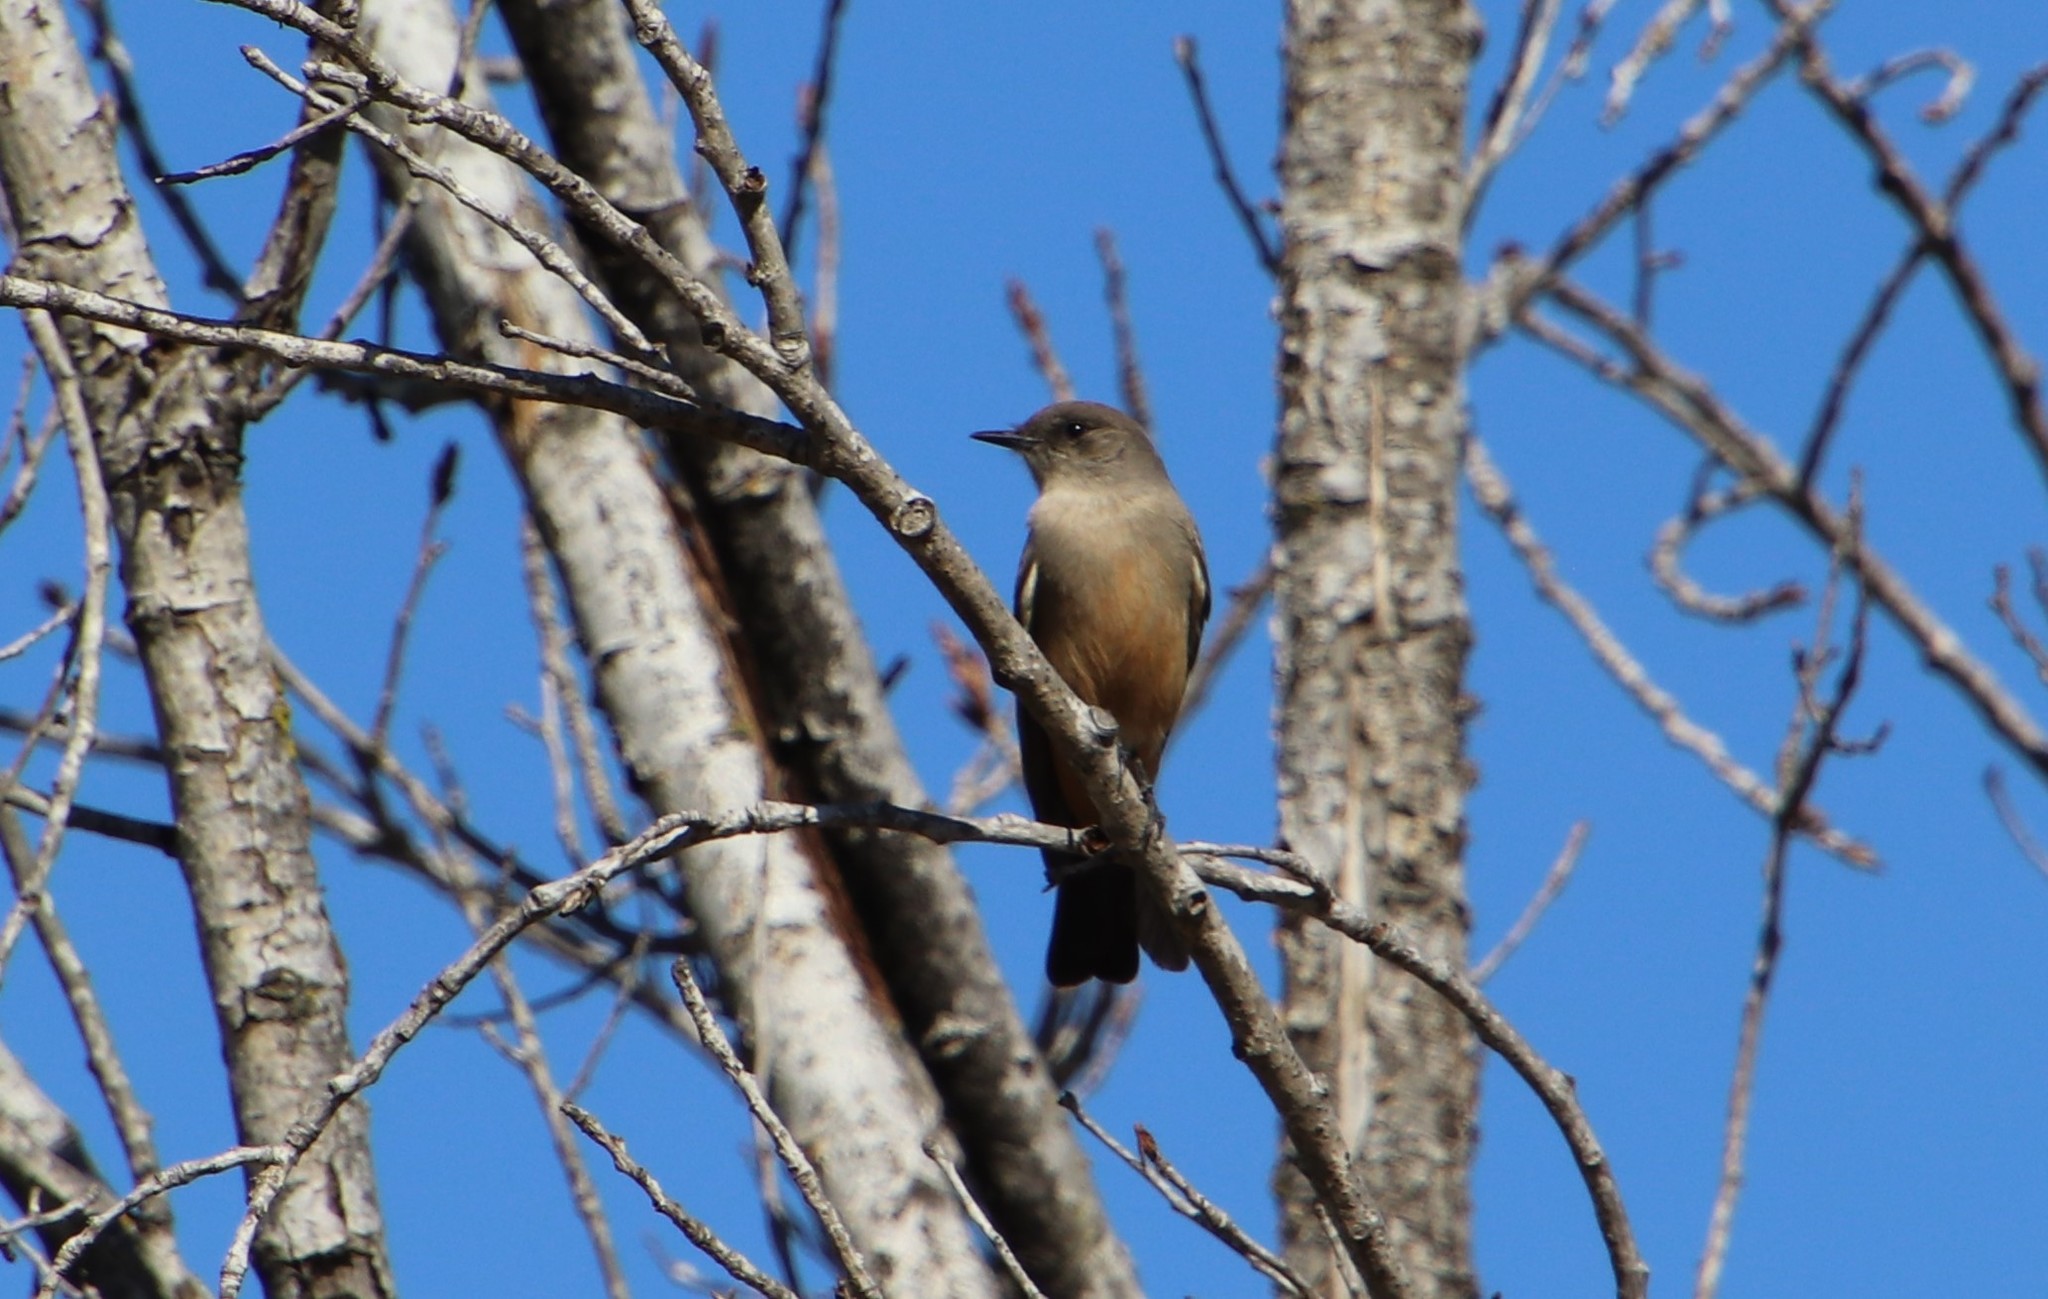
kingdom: Animalia
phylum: Chordata
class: Aves
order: Passeriformes
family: Tyrannidae
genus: Sayornis
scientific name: Sayornis saya
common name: Say's phoebe
